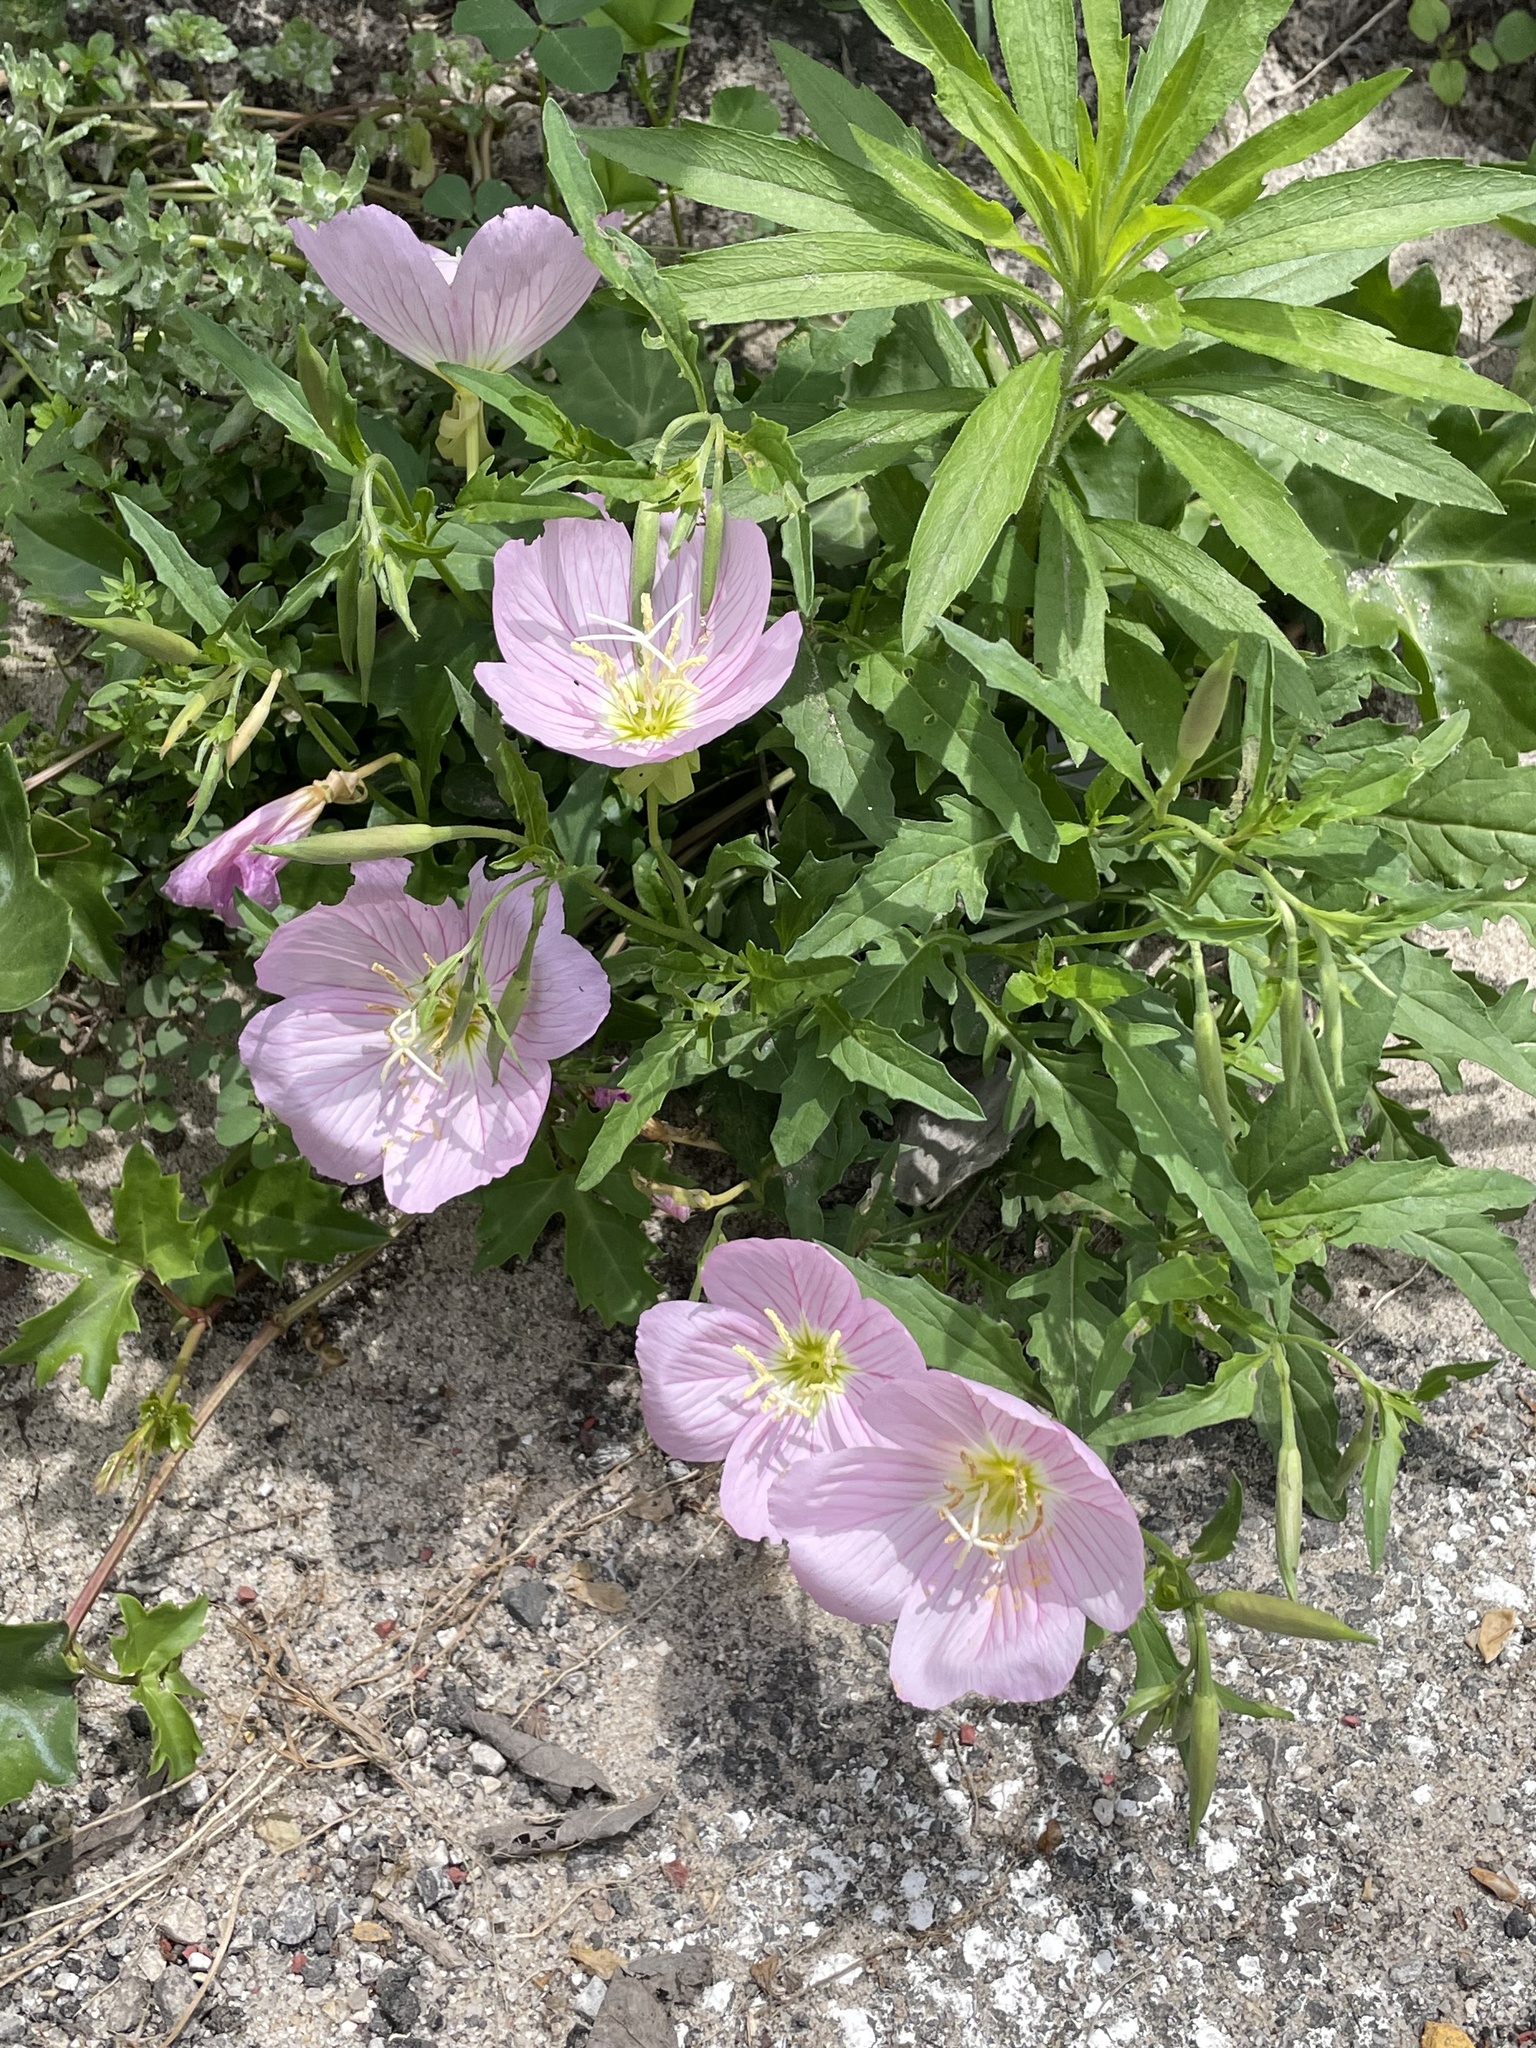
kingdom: Plantae
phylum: Tracheophyta
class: Magnoliopsida
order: Myrtales
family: Onagraceae
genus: Oenothera
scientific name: Oenothera speciosa
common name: White evening-primrose
